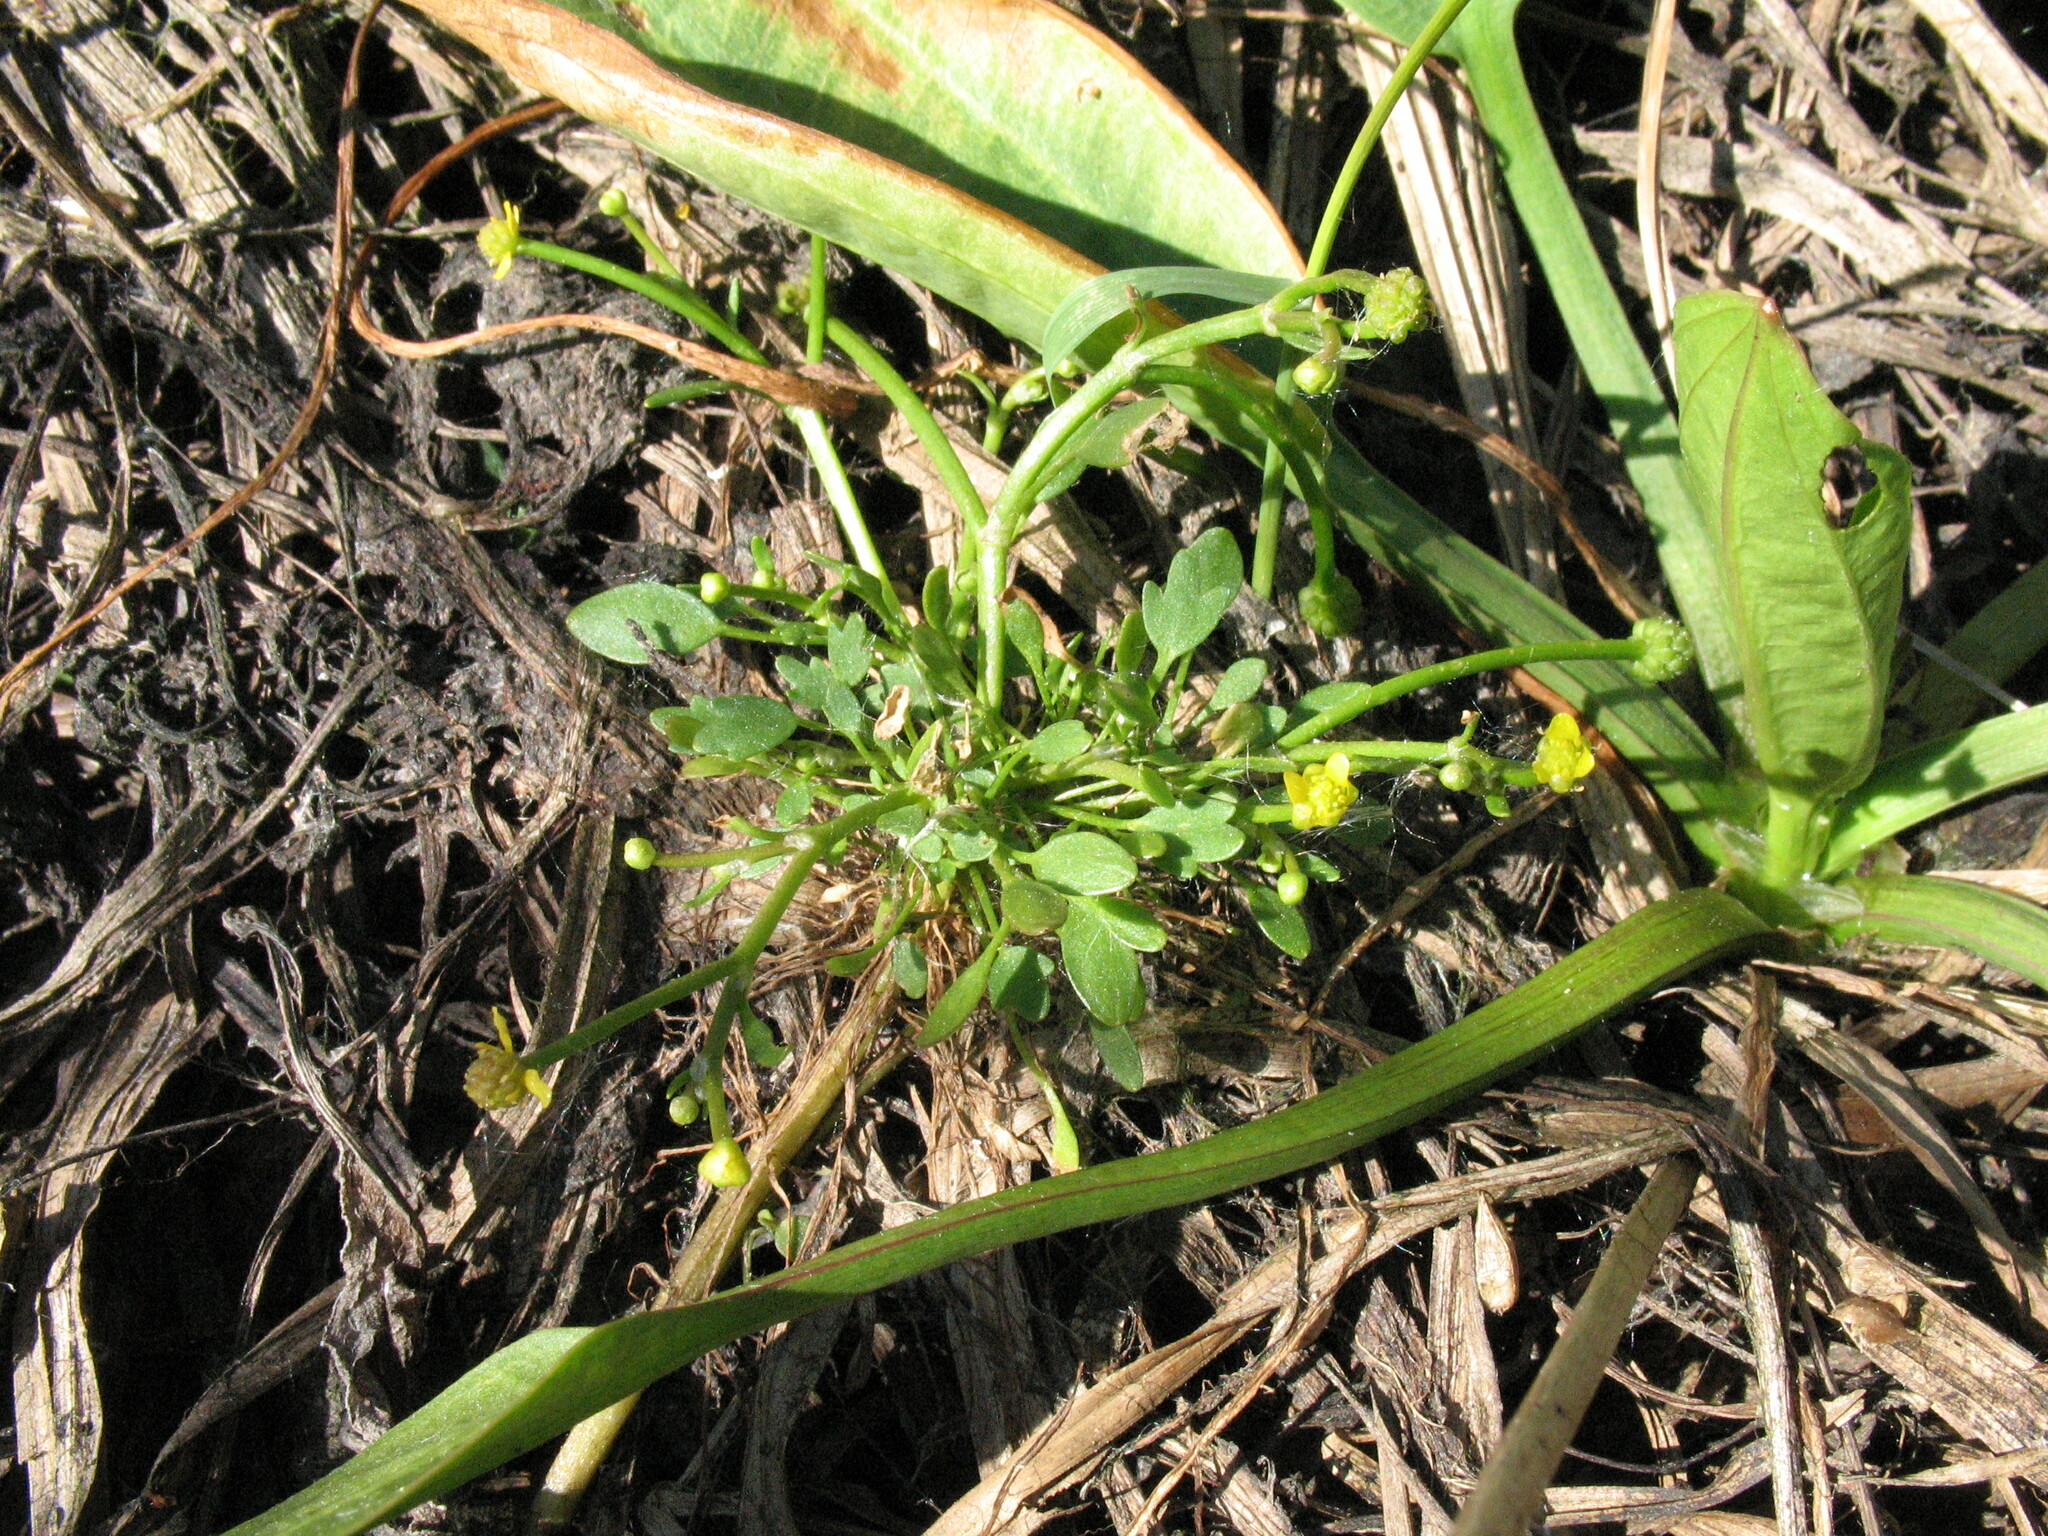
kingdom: Plantae
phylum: Tracheophyta
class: Magnoliopsida
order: Ranunculales
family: Ranunculaceae
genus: Ranunculus
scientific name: Ranunculus polyphyllus
